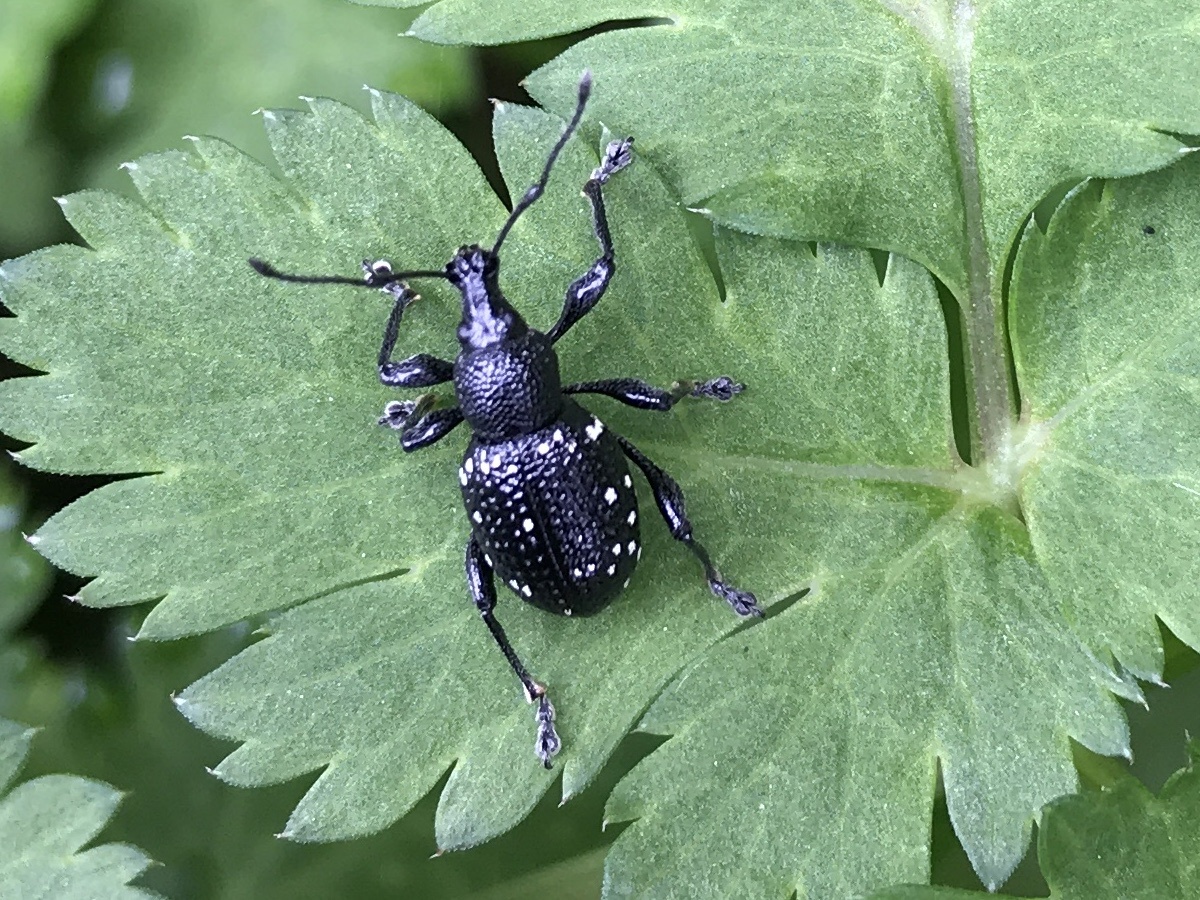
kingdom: Animalia
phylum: Arthropoda
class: Insecta
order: Coleoptera
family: Curculionidae
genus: Otiorhynchus
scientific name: Otiorhynchus gemmatus
